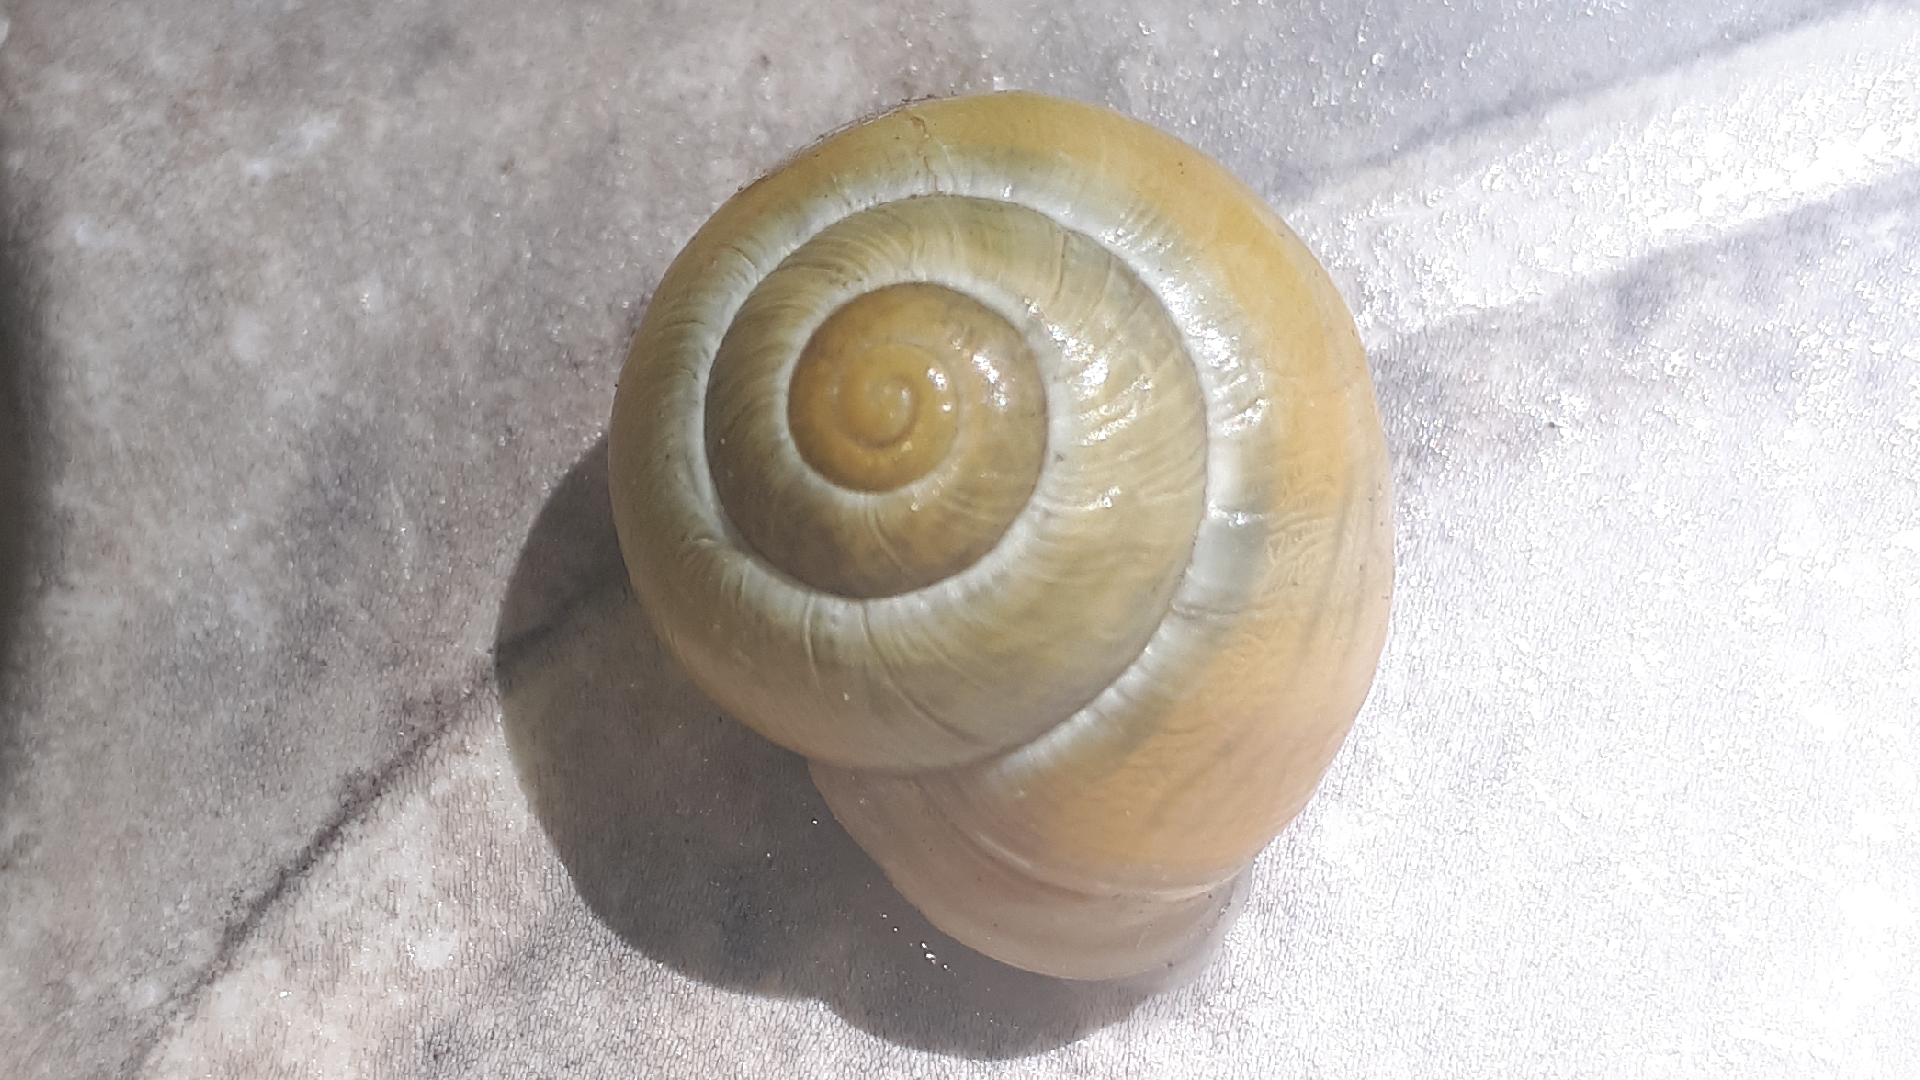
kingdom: Animalia
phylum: Mollusca
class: Gastropoda
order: Stylommatophora
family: Helicidae
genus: Cepaea
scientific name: Cepaea hortensis
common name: White-lip gardensnail
